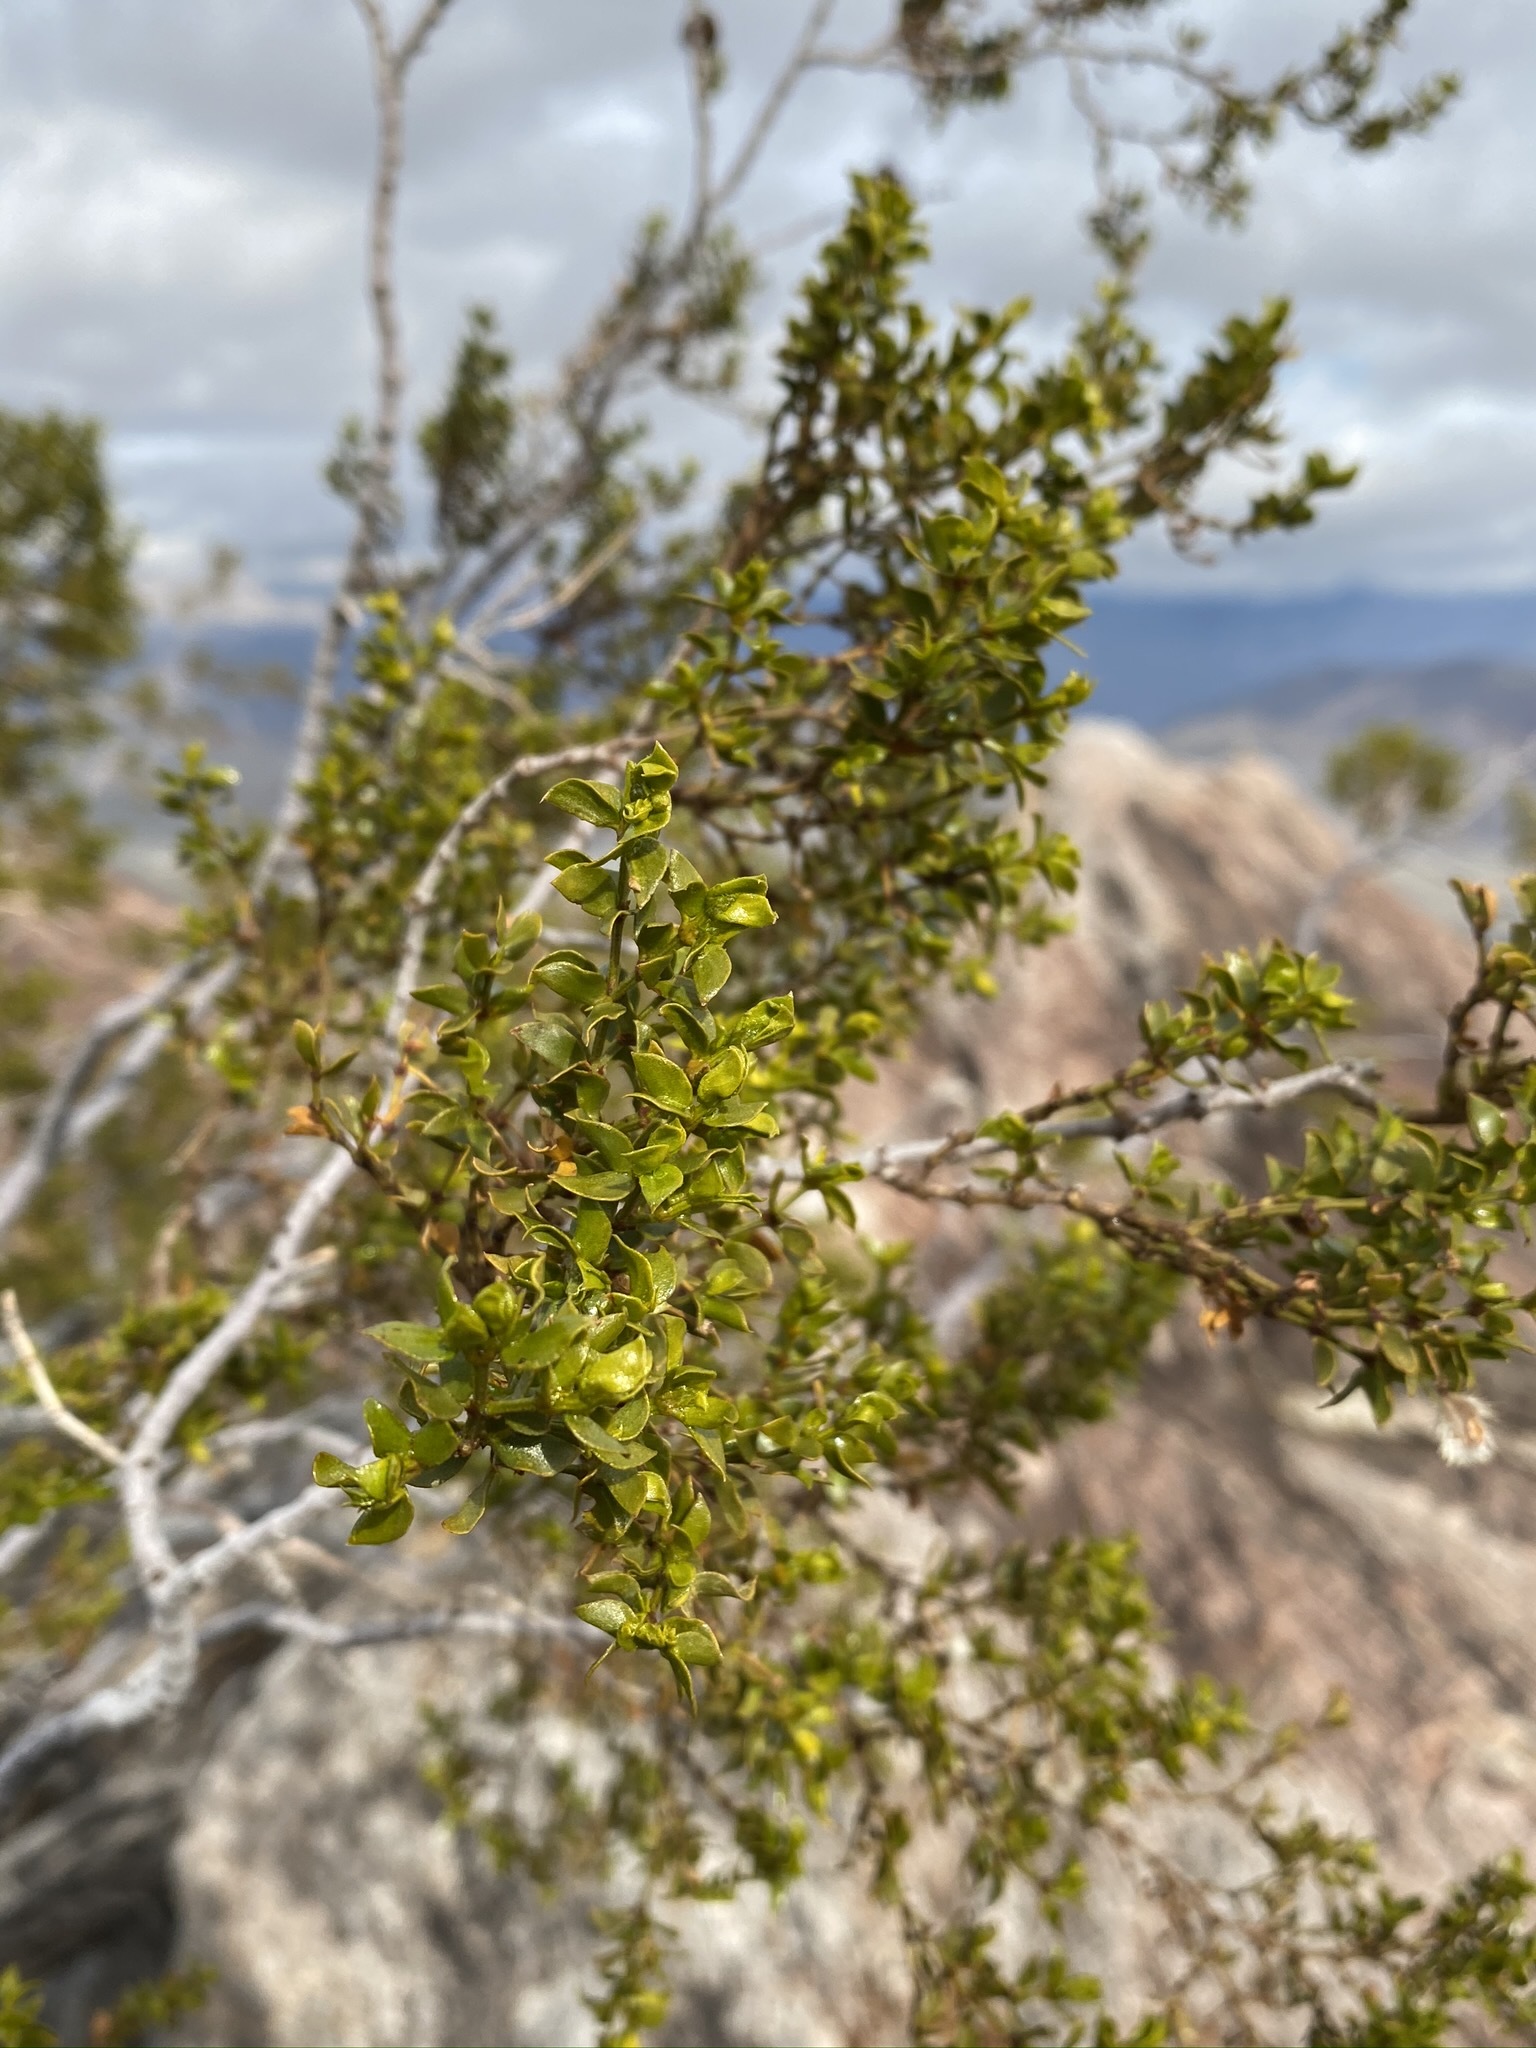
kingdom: Plantae
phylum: Tracheophyta
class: Magnoliopsida
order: Zygophyllales
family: Zygophyllaceae
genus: Larrea
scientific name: Larrea tridentata
